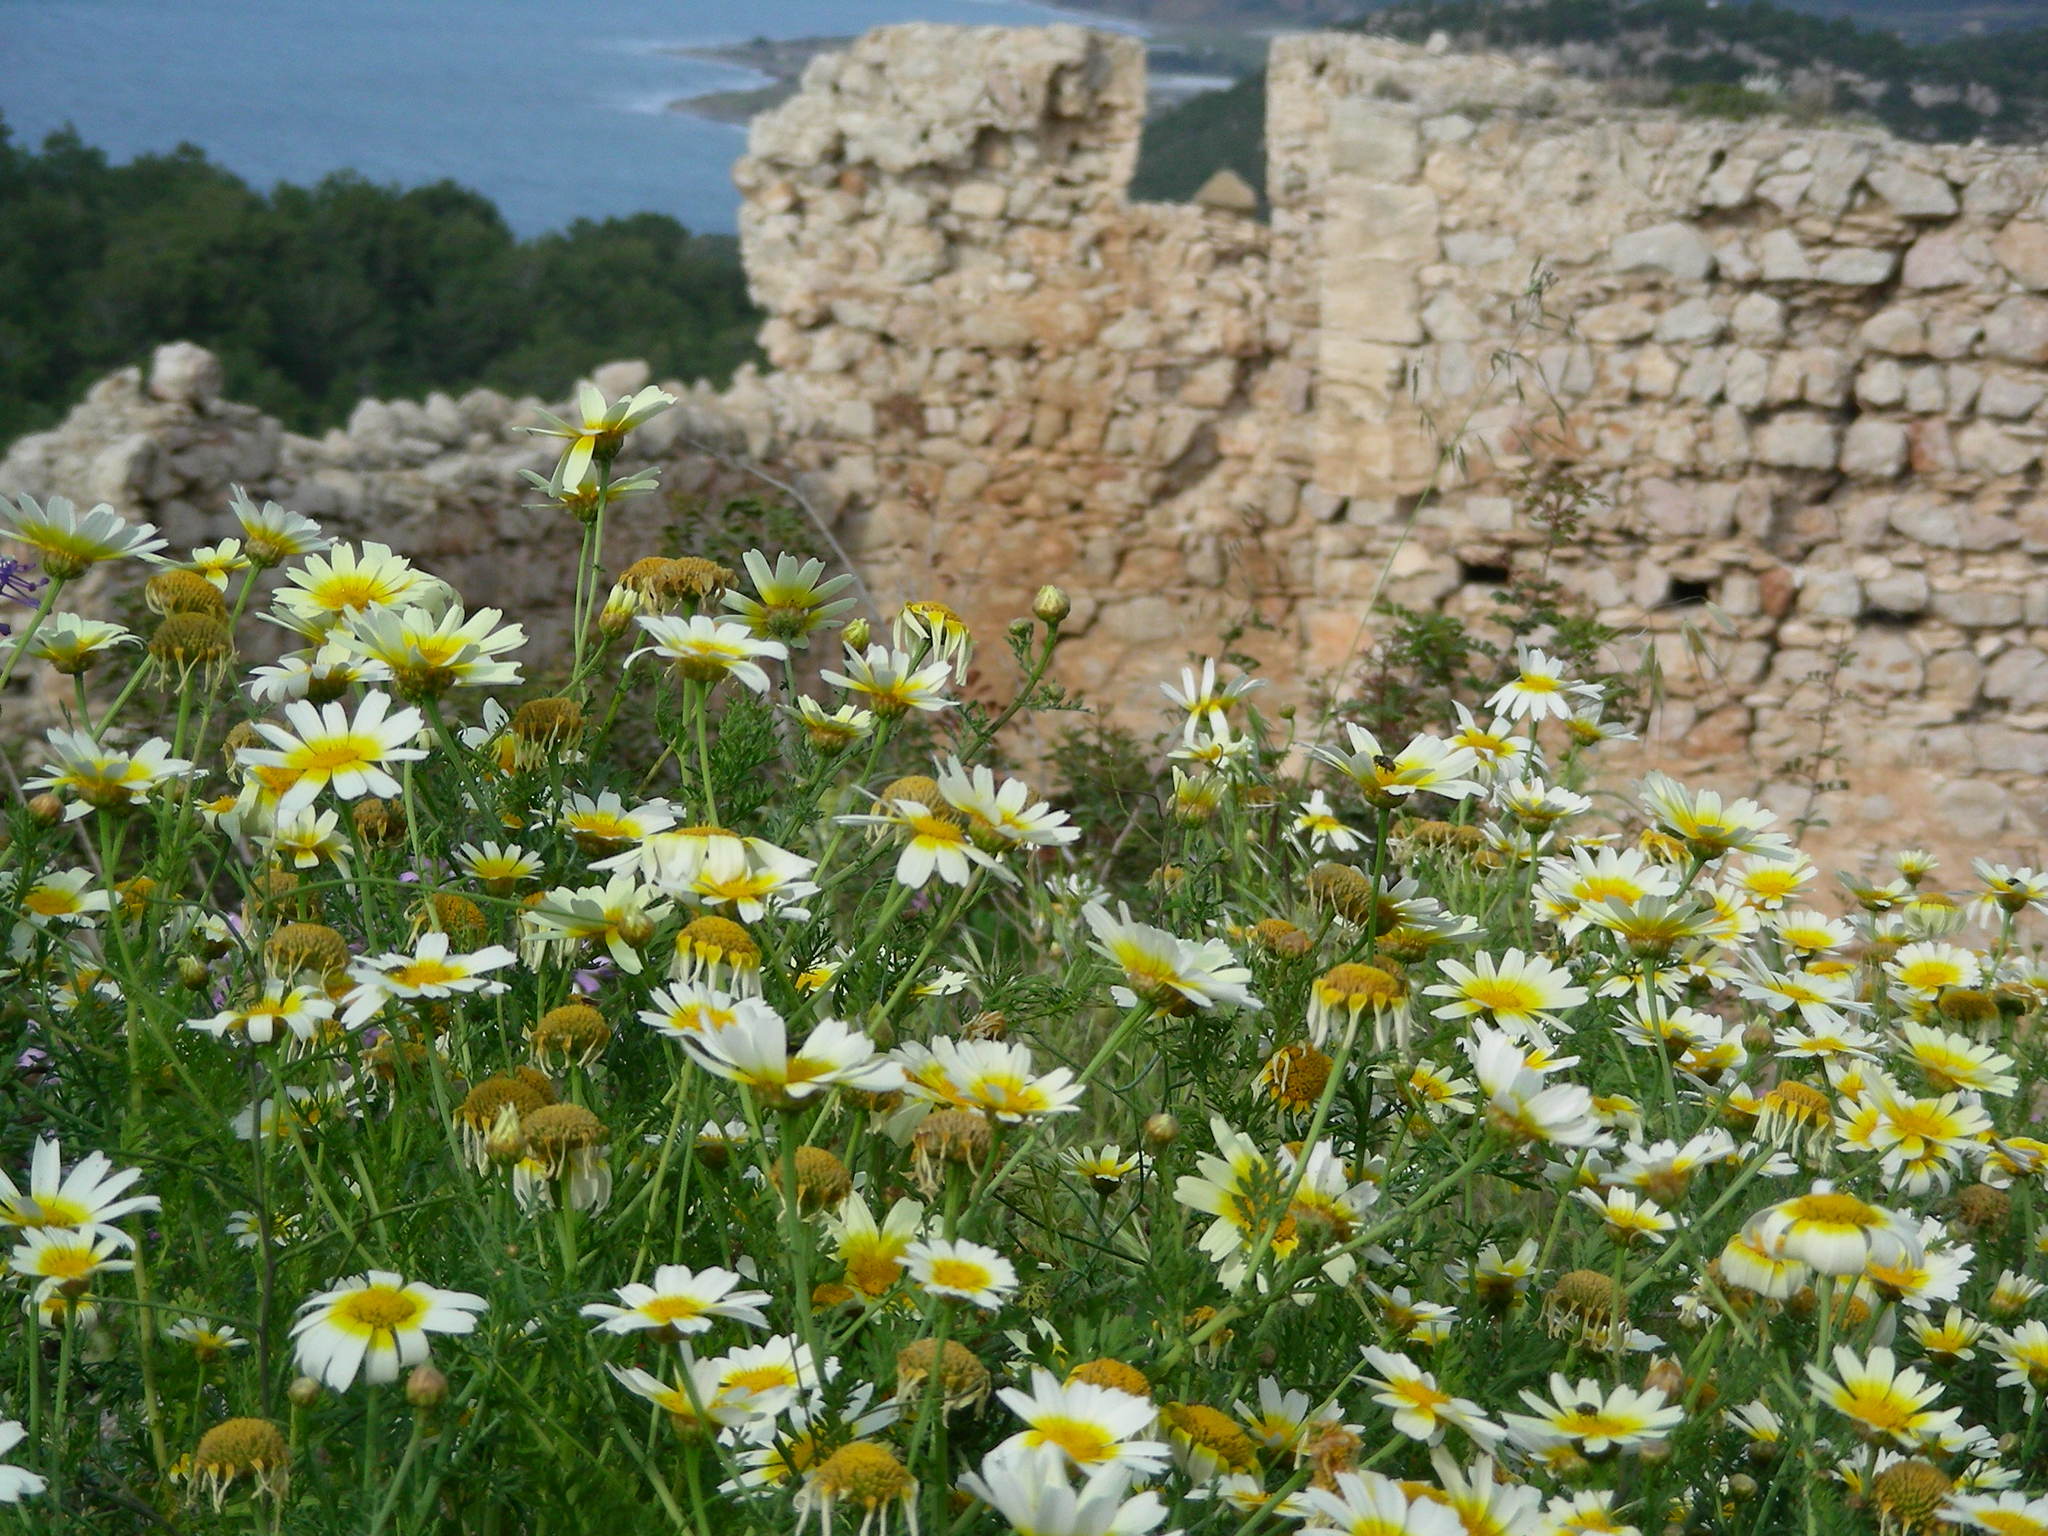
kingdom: Plantae
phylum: Tracheophyta
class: Magnoliopsida
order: Asterales
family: Asteraceae
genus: Glebionis
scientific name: Glebionis coronaria
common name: Crowndaisy
